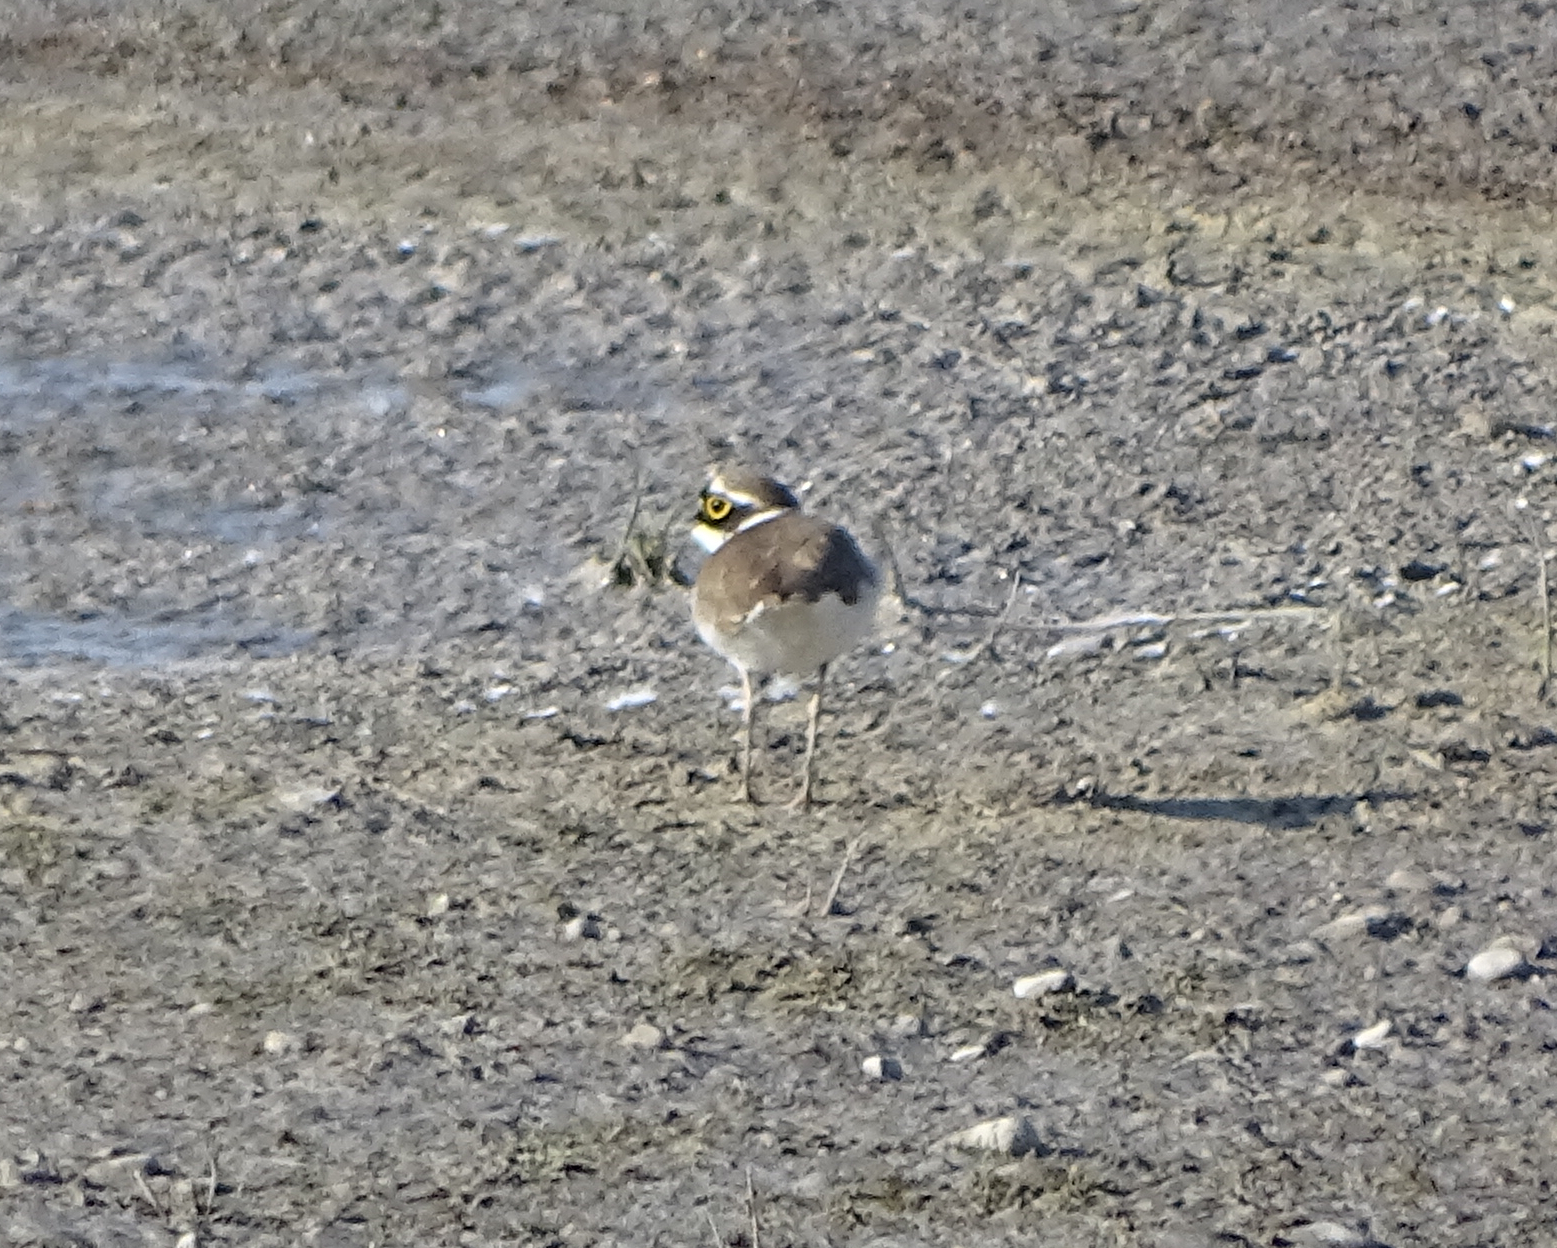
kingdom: Animalia
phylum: Chordata
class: Aves
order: Charadriiformes
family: Charadriidae
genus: Charadrius
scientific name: Charadrius dubius
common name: Little ringed plover
